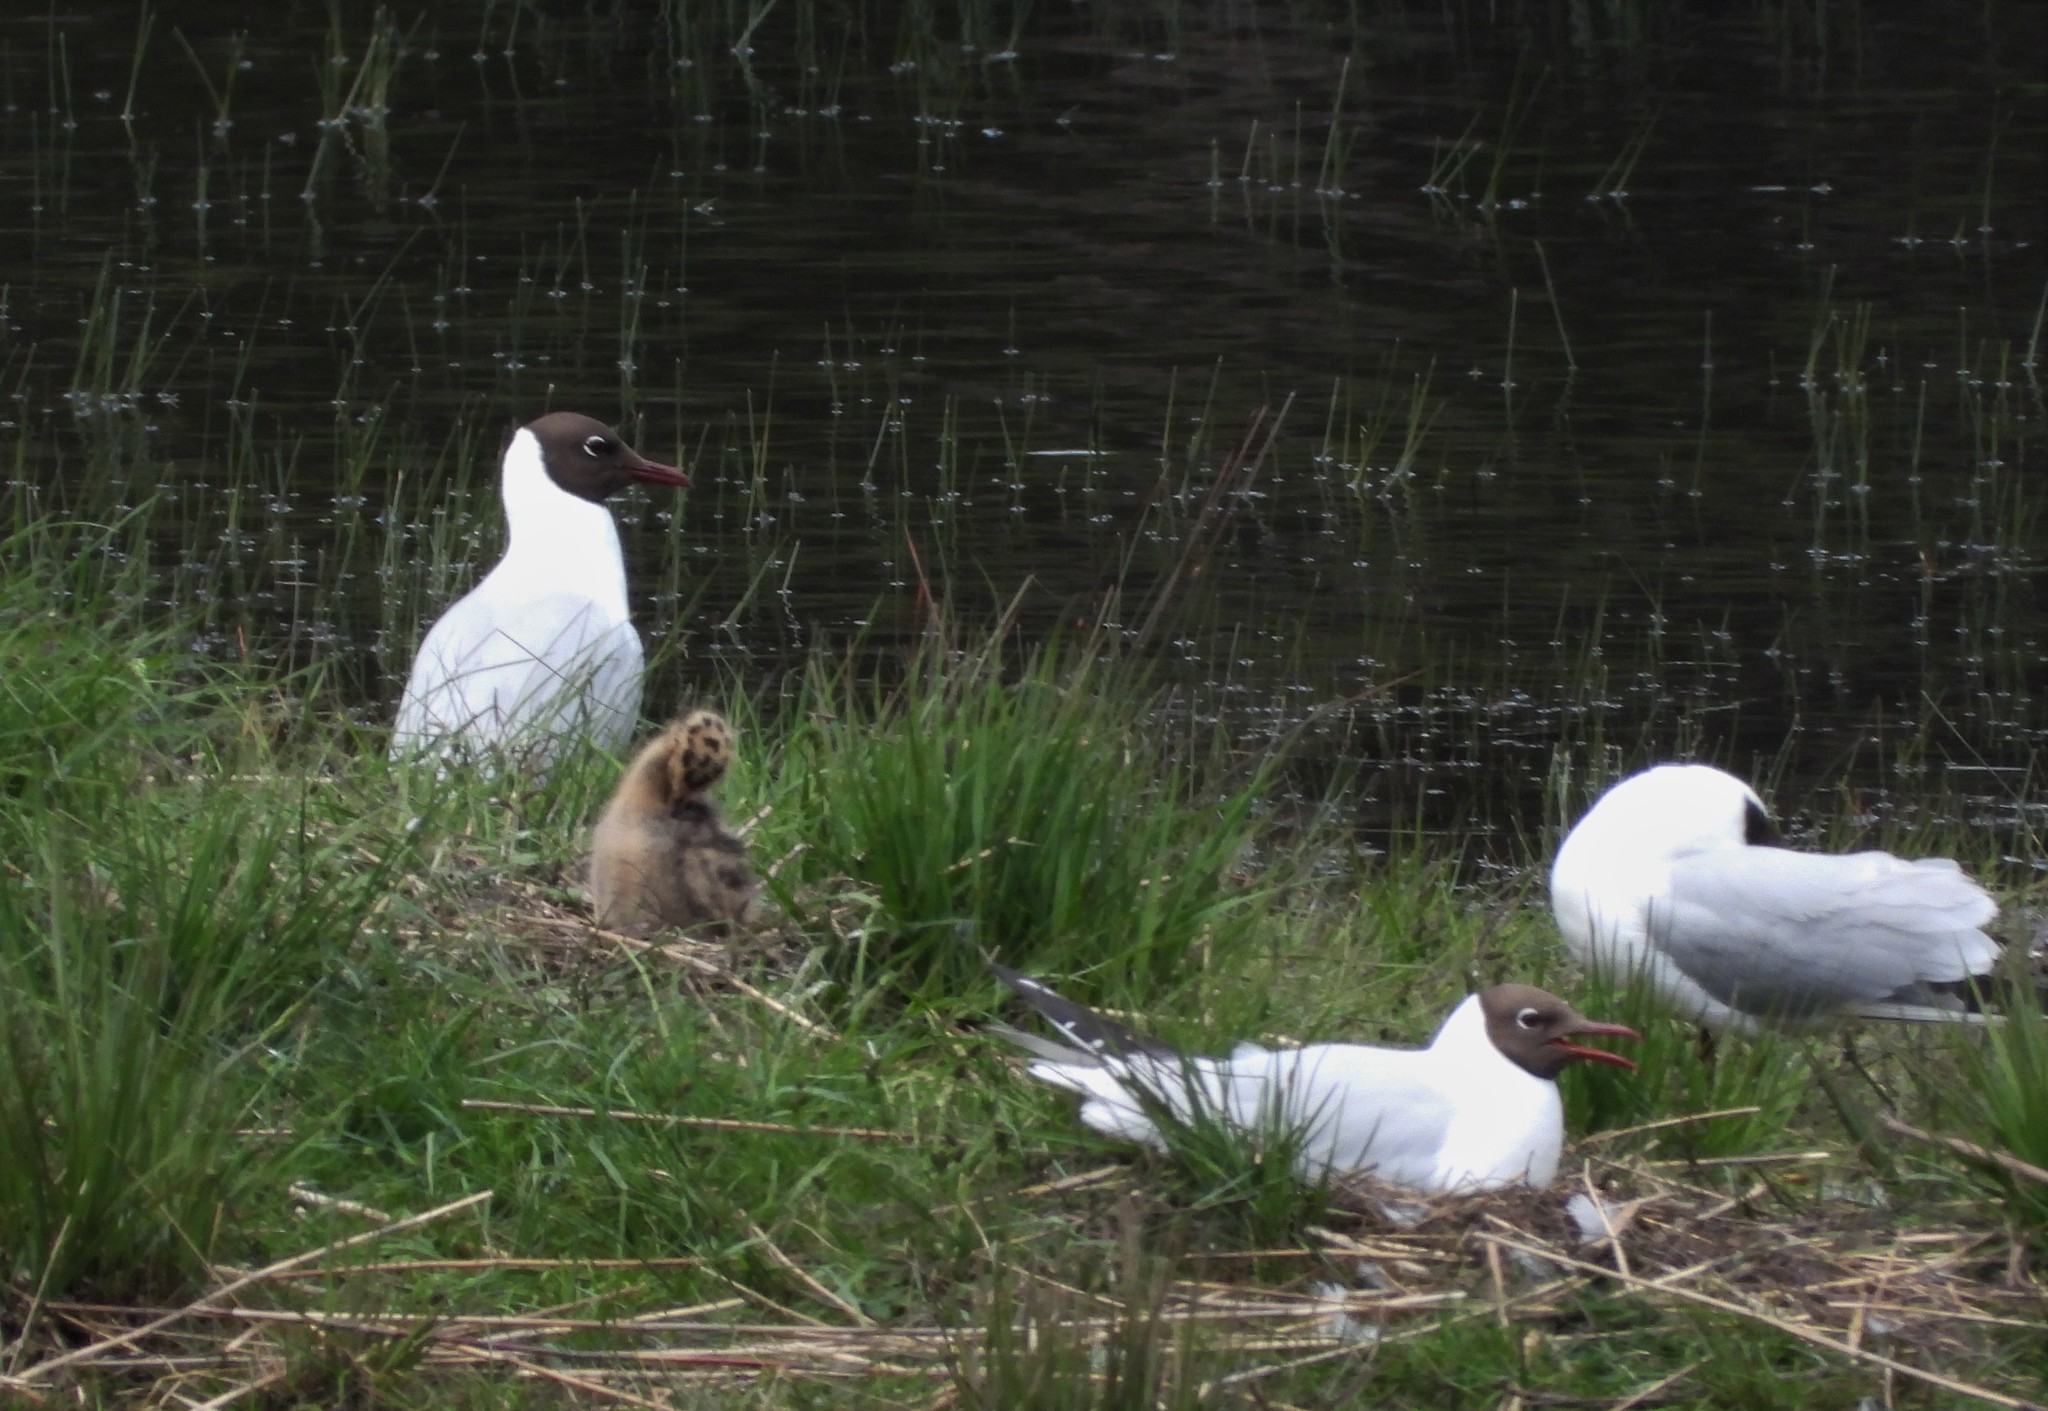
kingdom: Animalia
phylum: Chordata
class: Aves
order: Charadriiformes
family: Laridae
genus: Chroicocephalus
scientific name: Chroicocephalus ridibundus
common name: Black-headed gull
